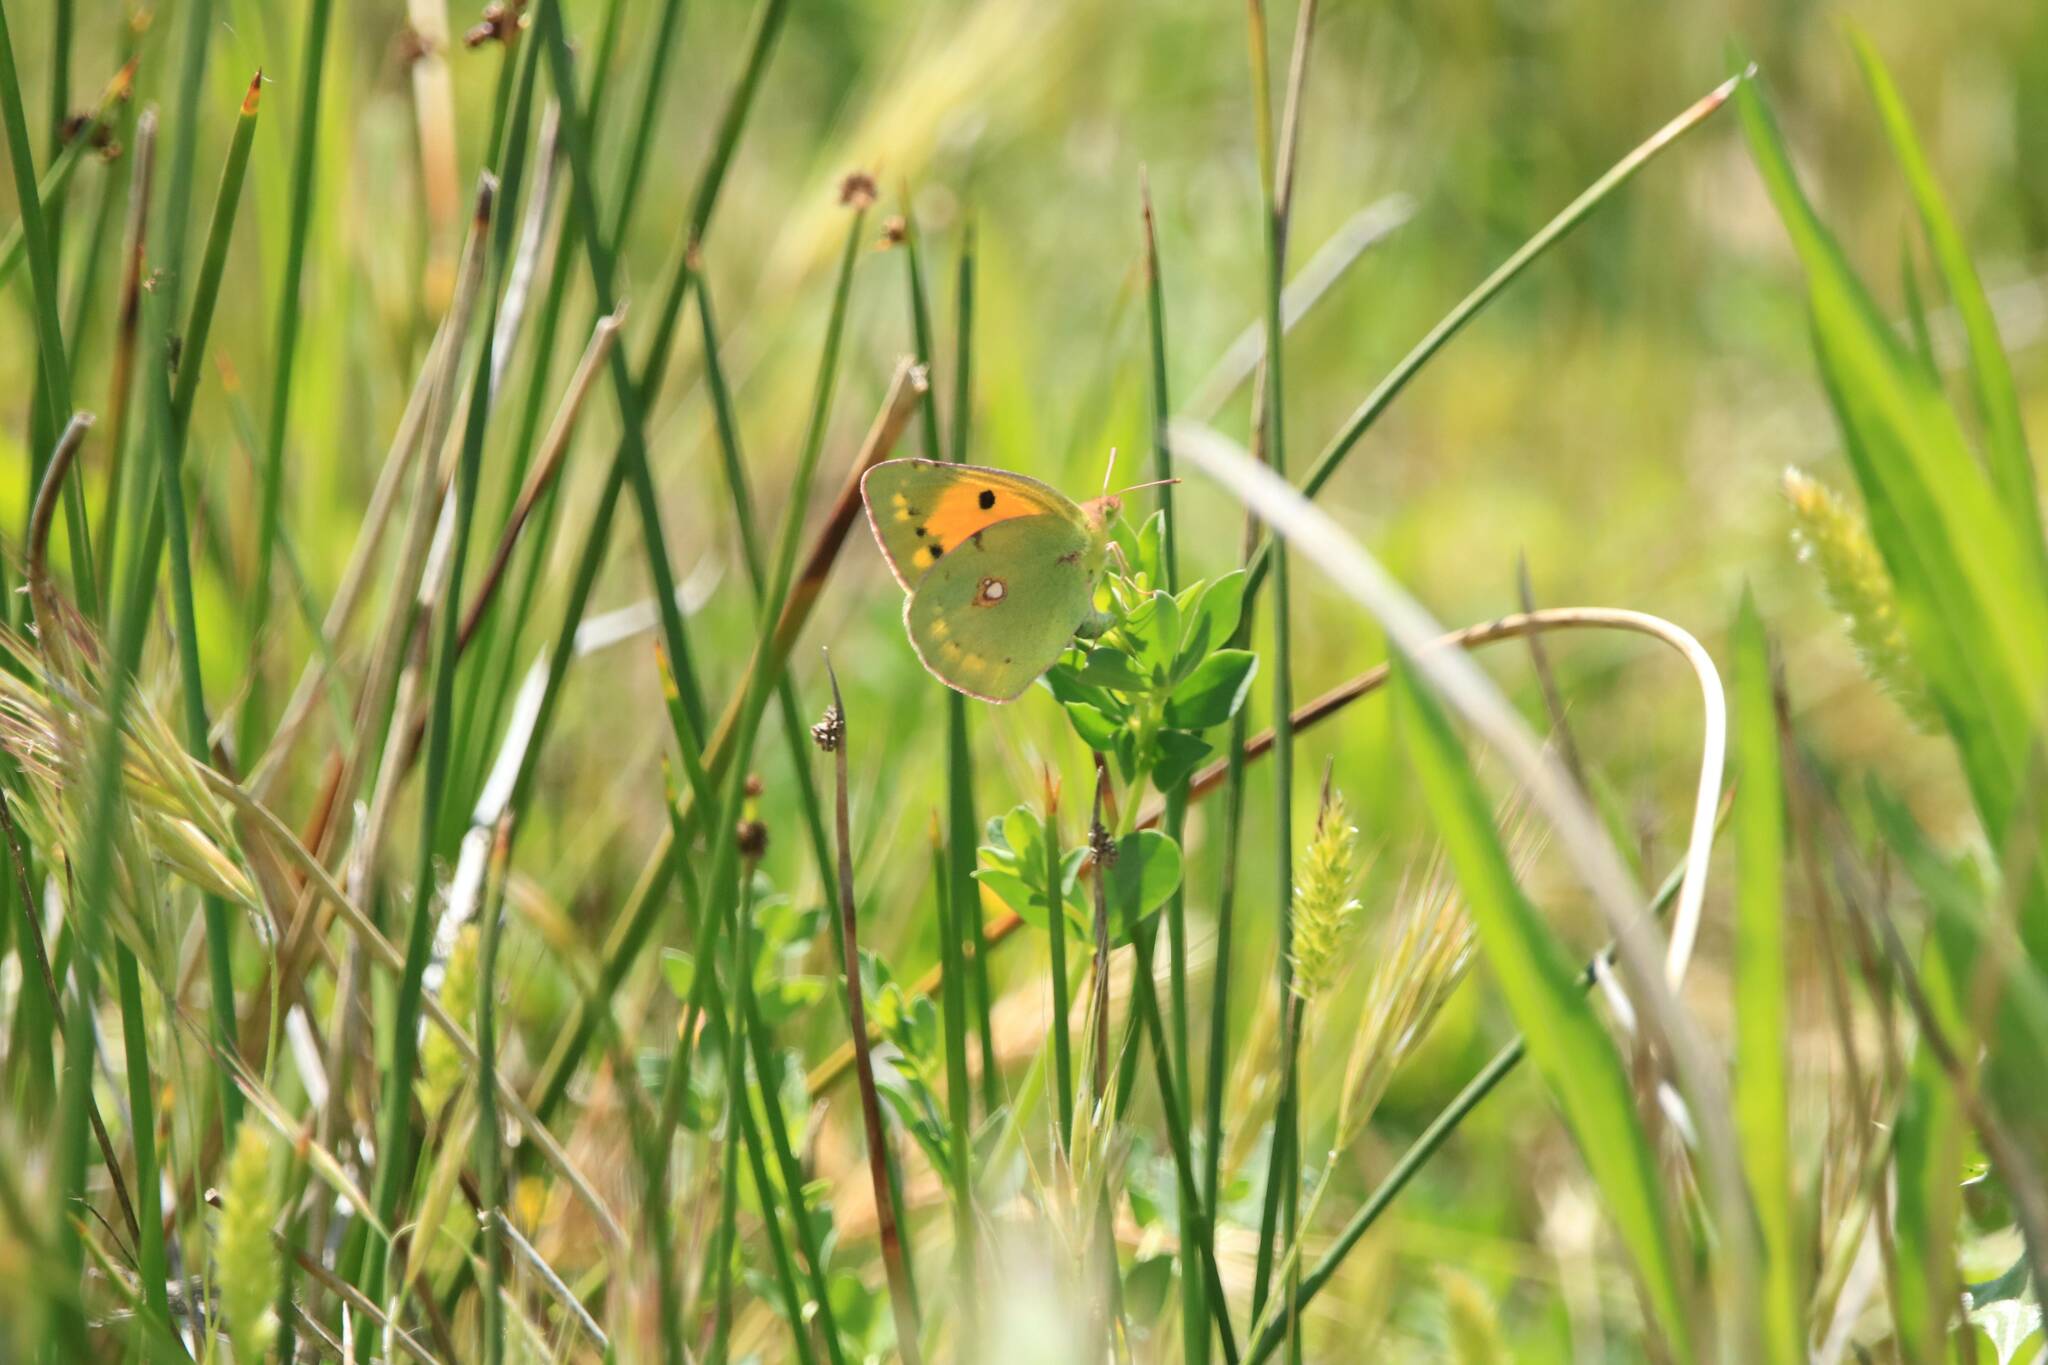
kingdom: Animalia
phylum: Arthropoda
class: Insecta
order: Lepidoptera
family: Pieridae
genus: Colias
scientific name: Colias croceus
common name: Clouded yellow
